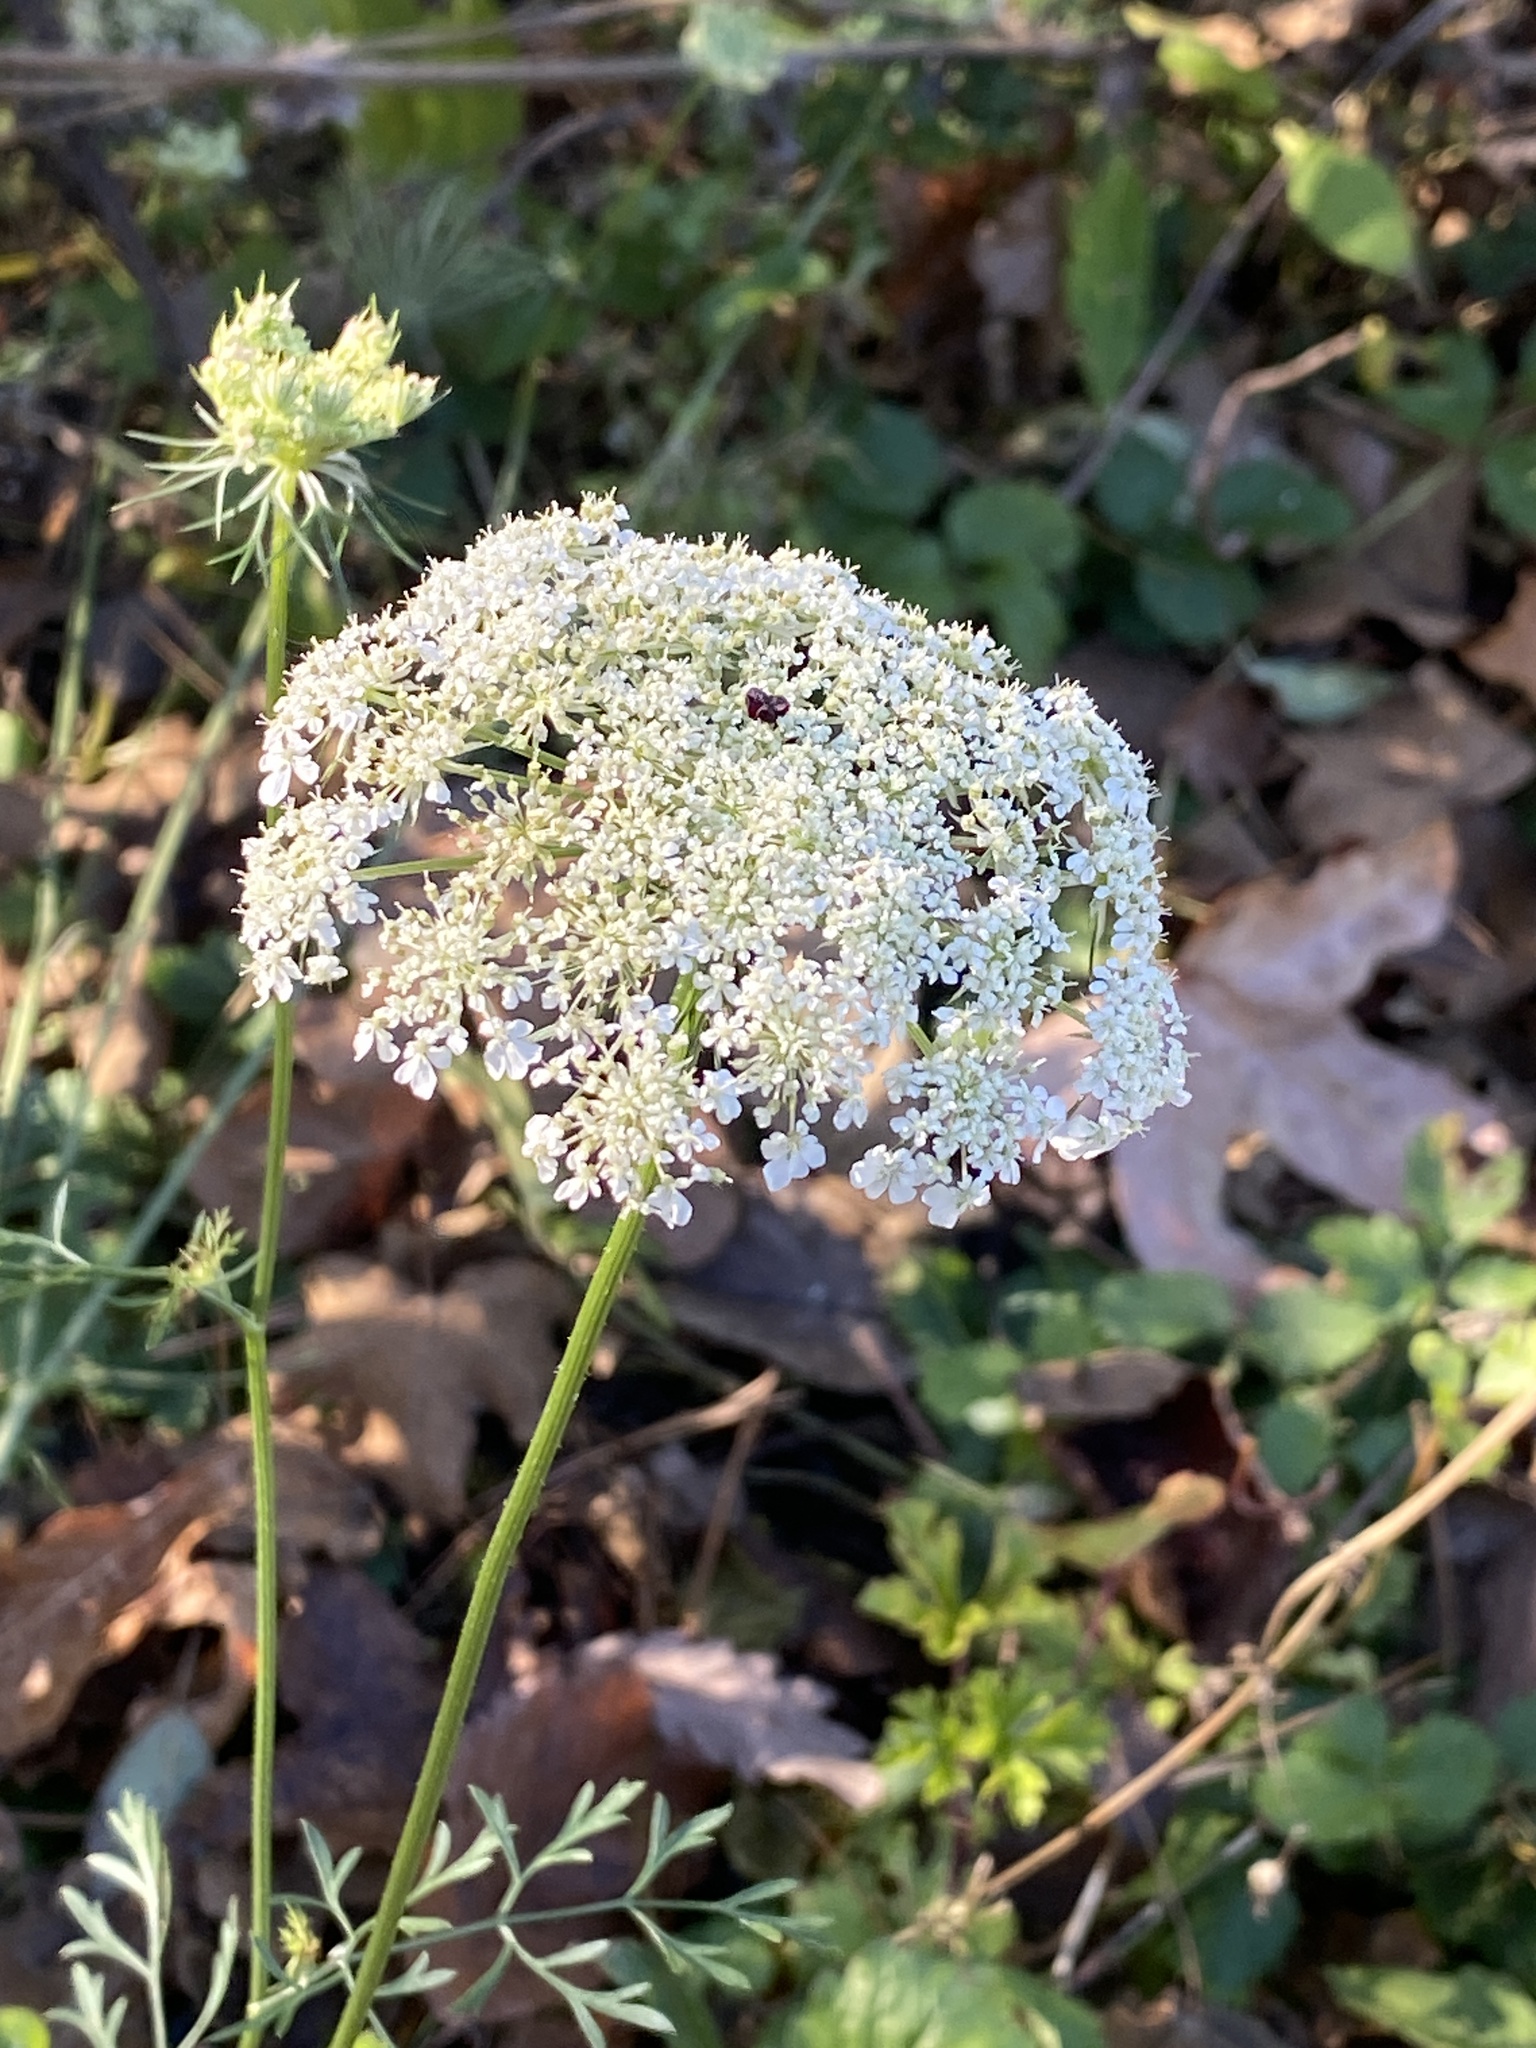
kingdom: Plantae
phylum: Tracheophyta
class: Magnoliopsida
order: Apiales
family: Apiaceae
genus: Daucus
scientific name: Daucus carota
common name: Wild carrot
